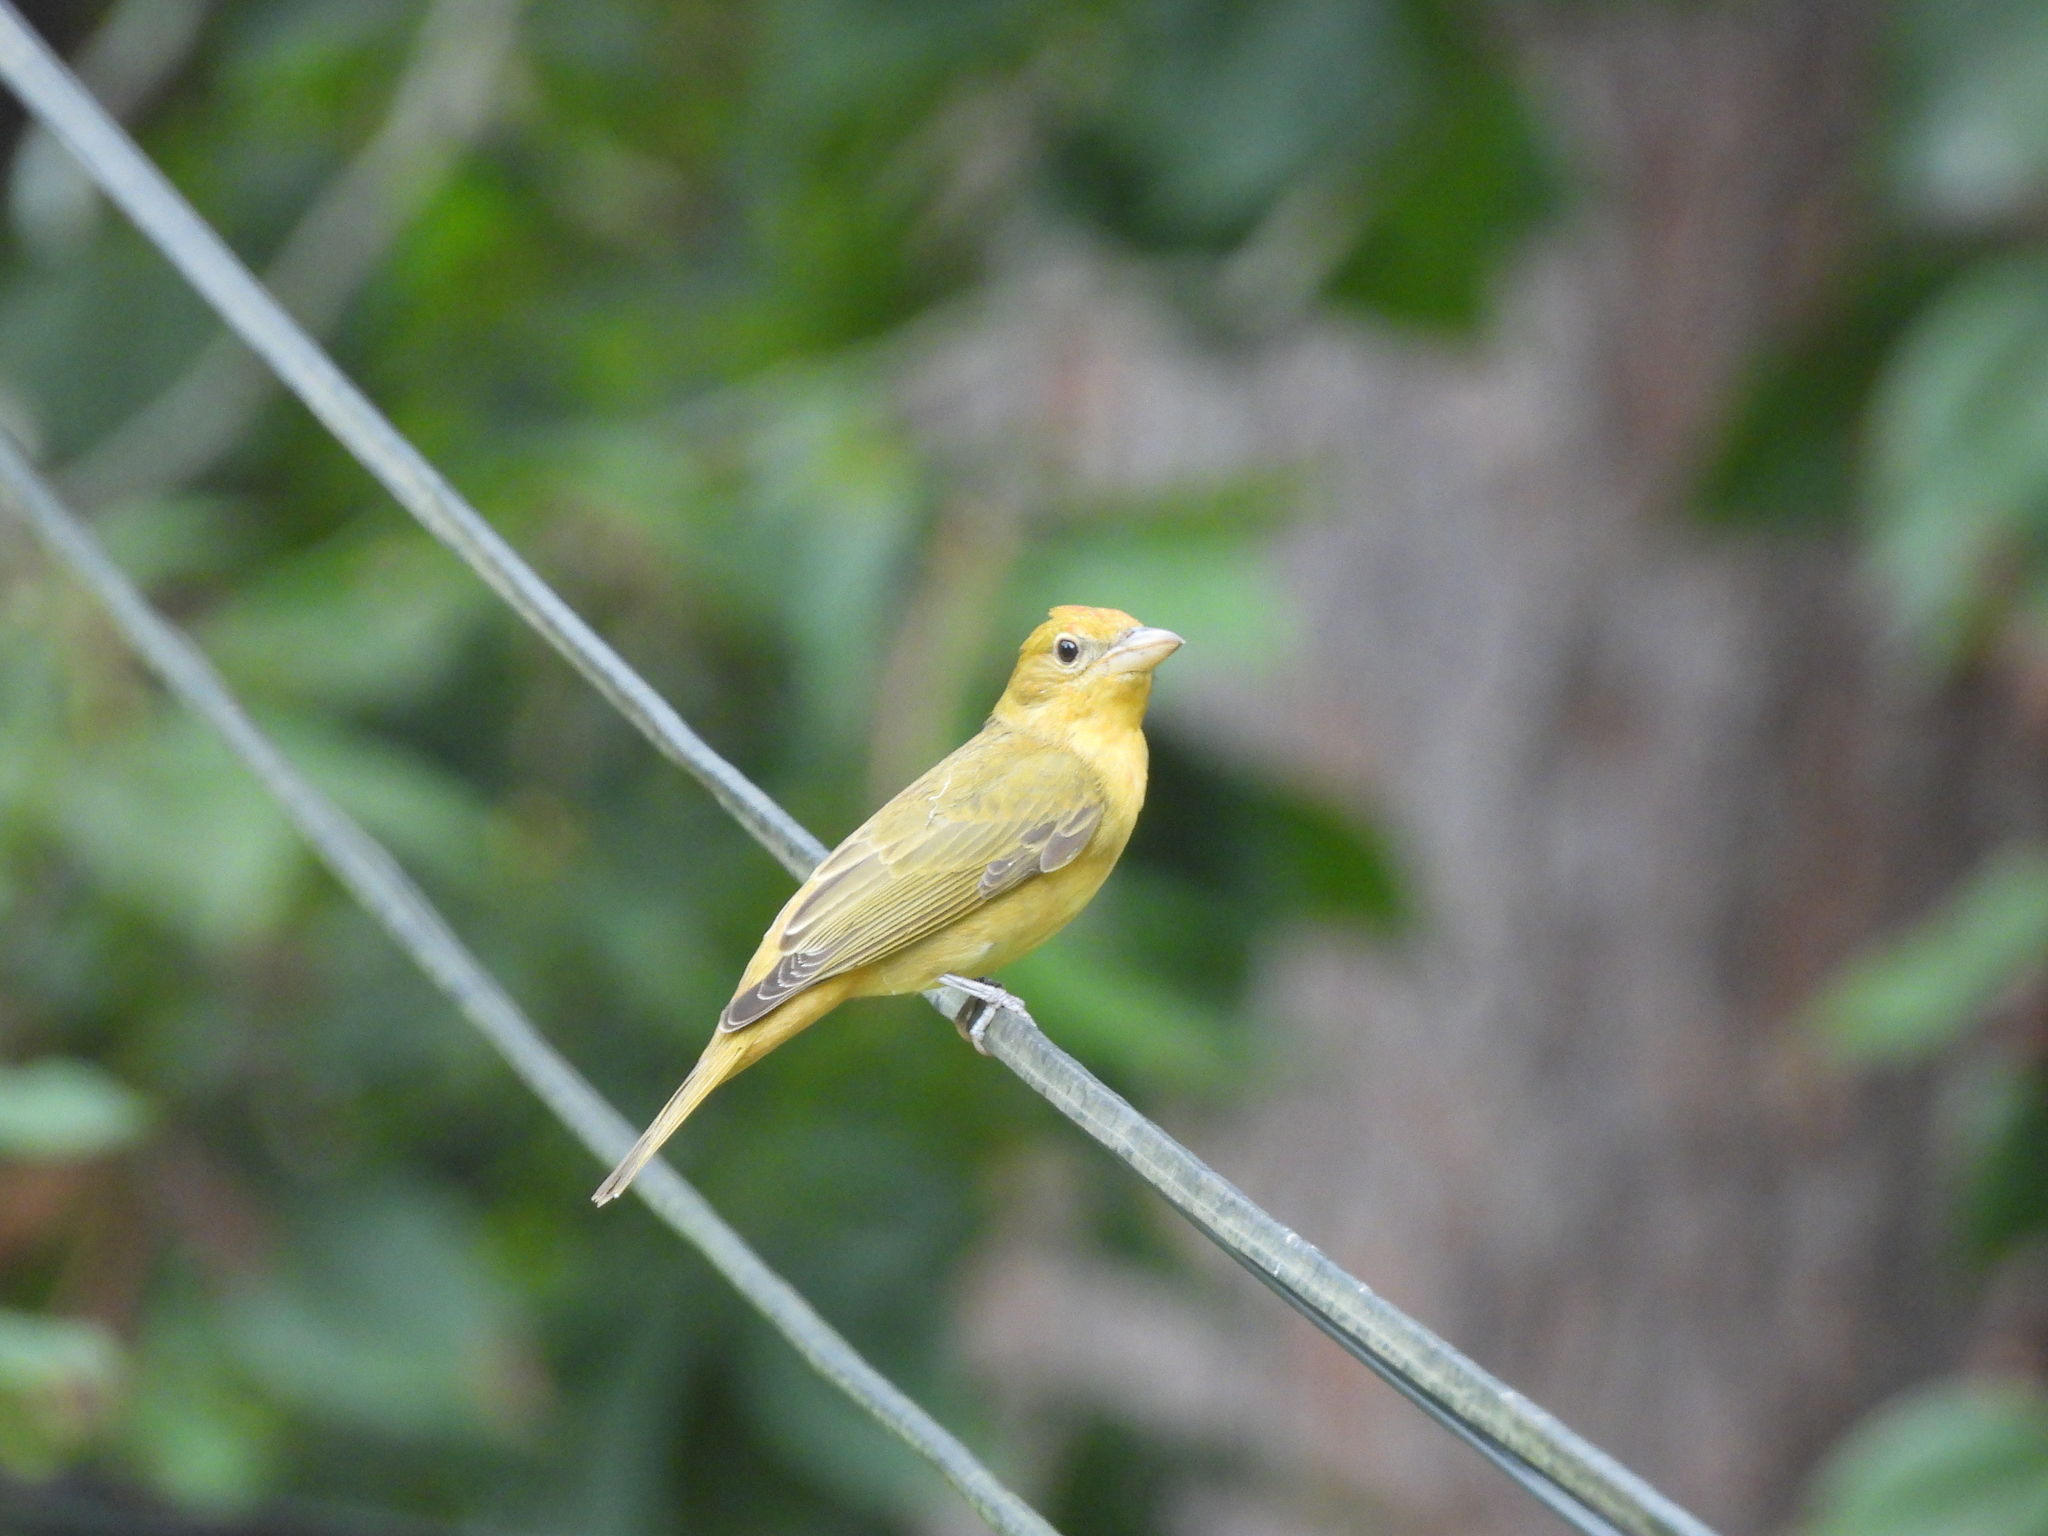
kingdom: Animalia
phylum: Chordata
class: Aves
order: Passeriformes
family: Cardinalidae
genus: Piranga
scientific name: Piranga rubra
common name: Summer tanager
